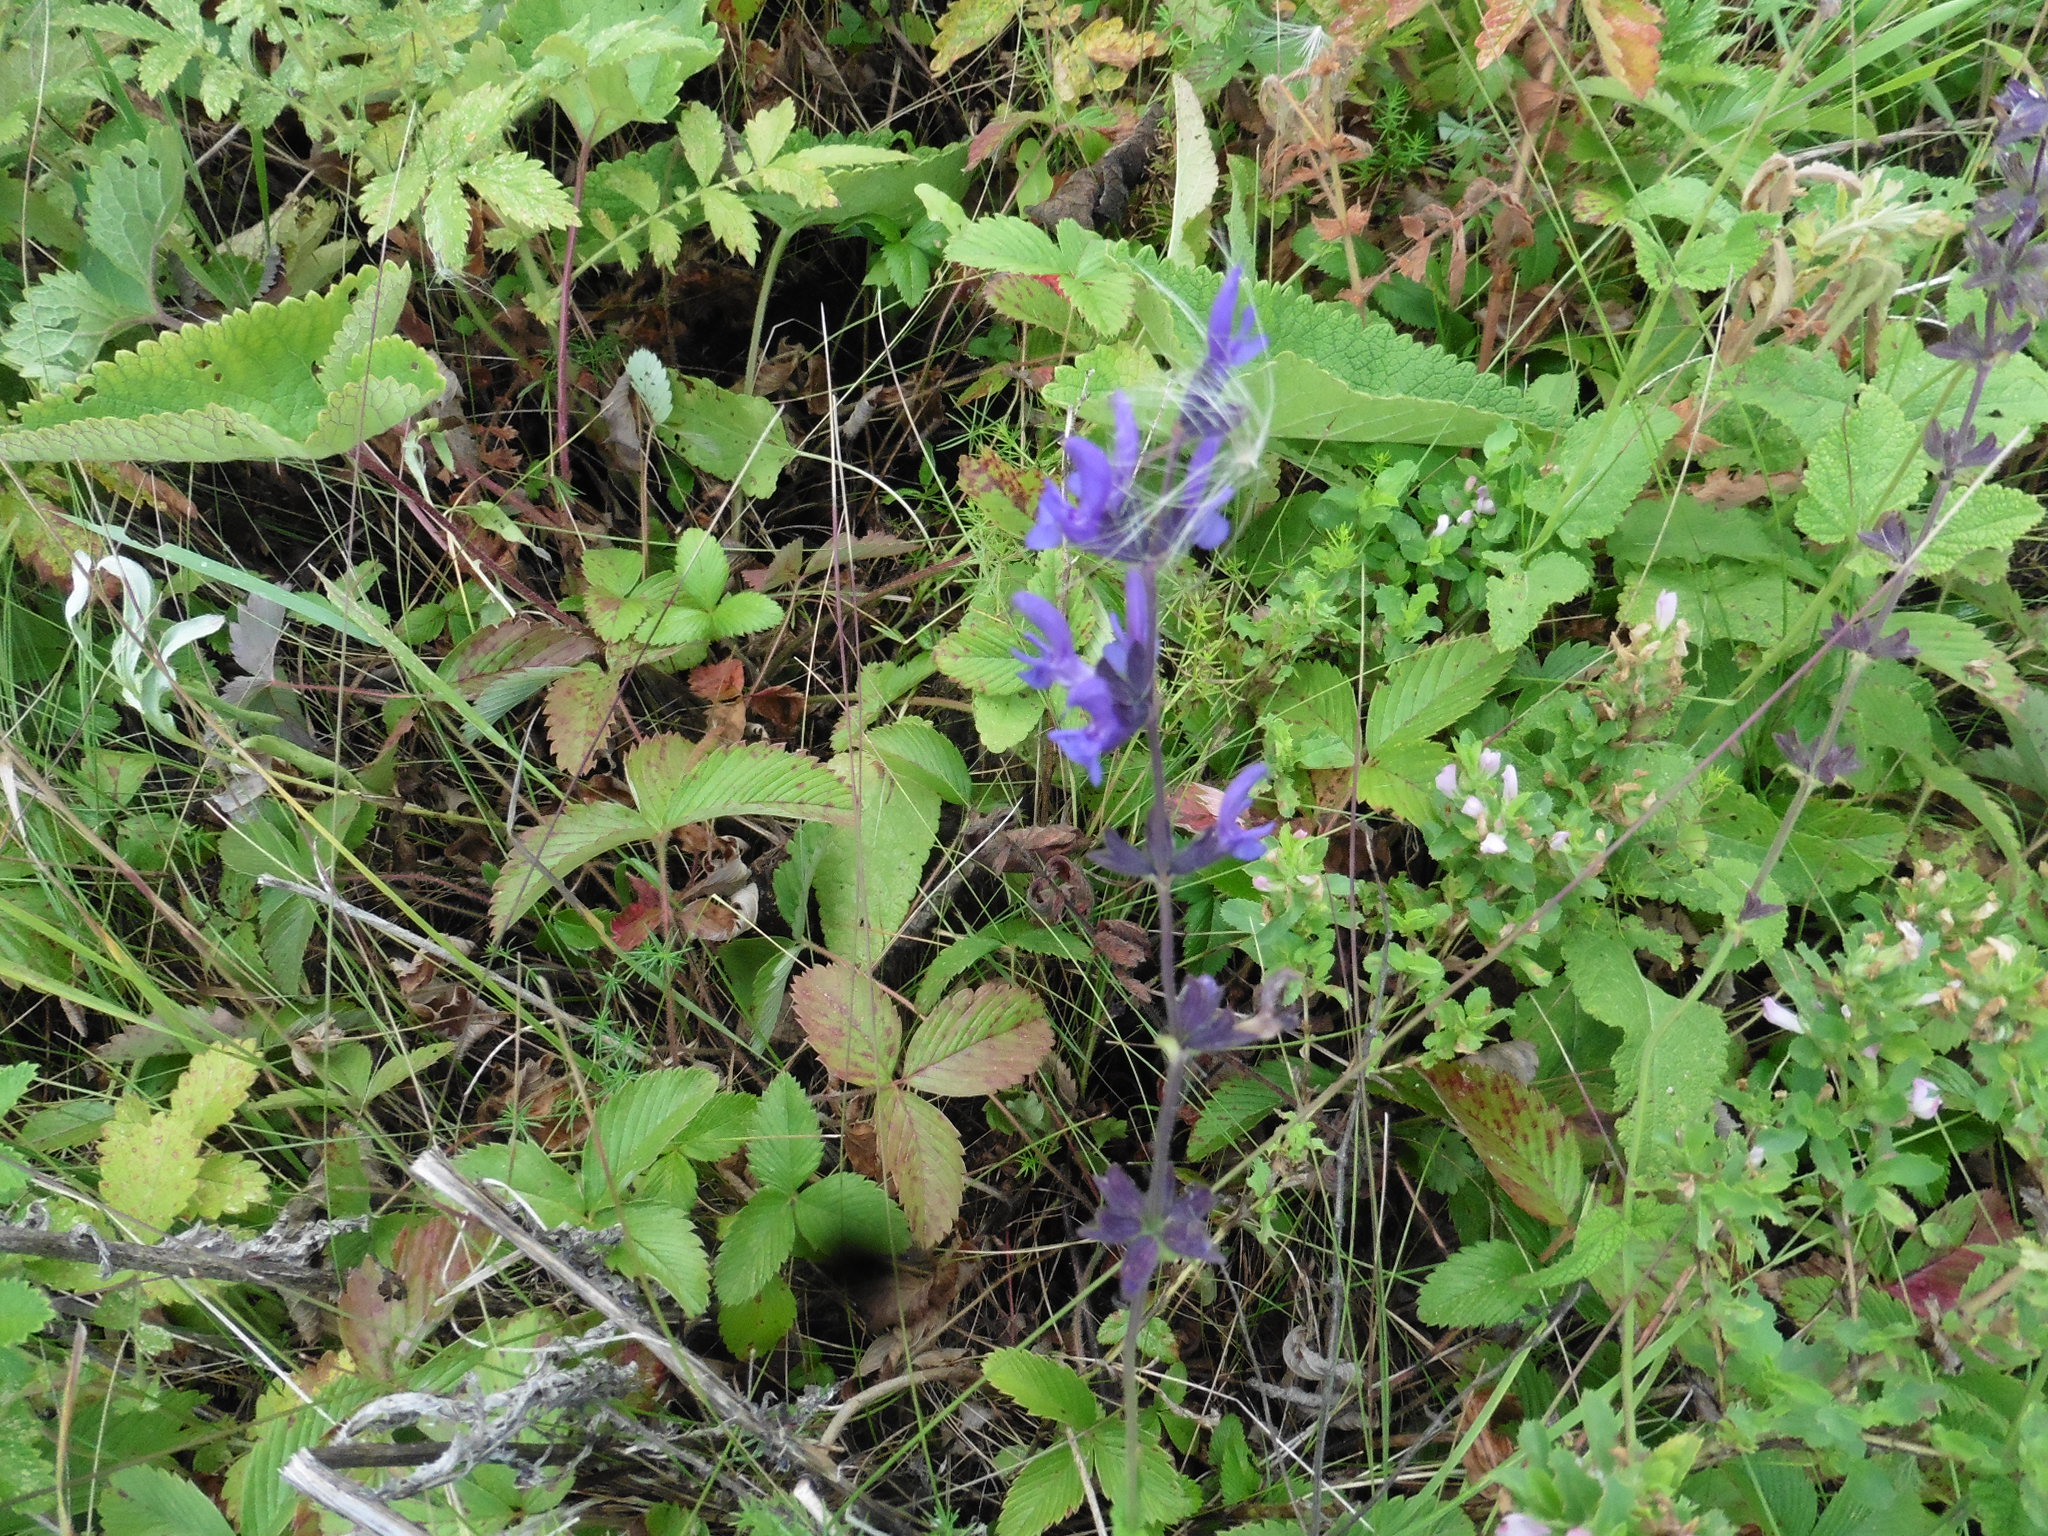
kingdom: Plantae
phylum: Tracheophyta
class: Magnoliopsida
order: Lamiales
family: Lamiaceae
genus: Salvia
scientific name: Salvia dumetorum
